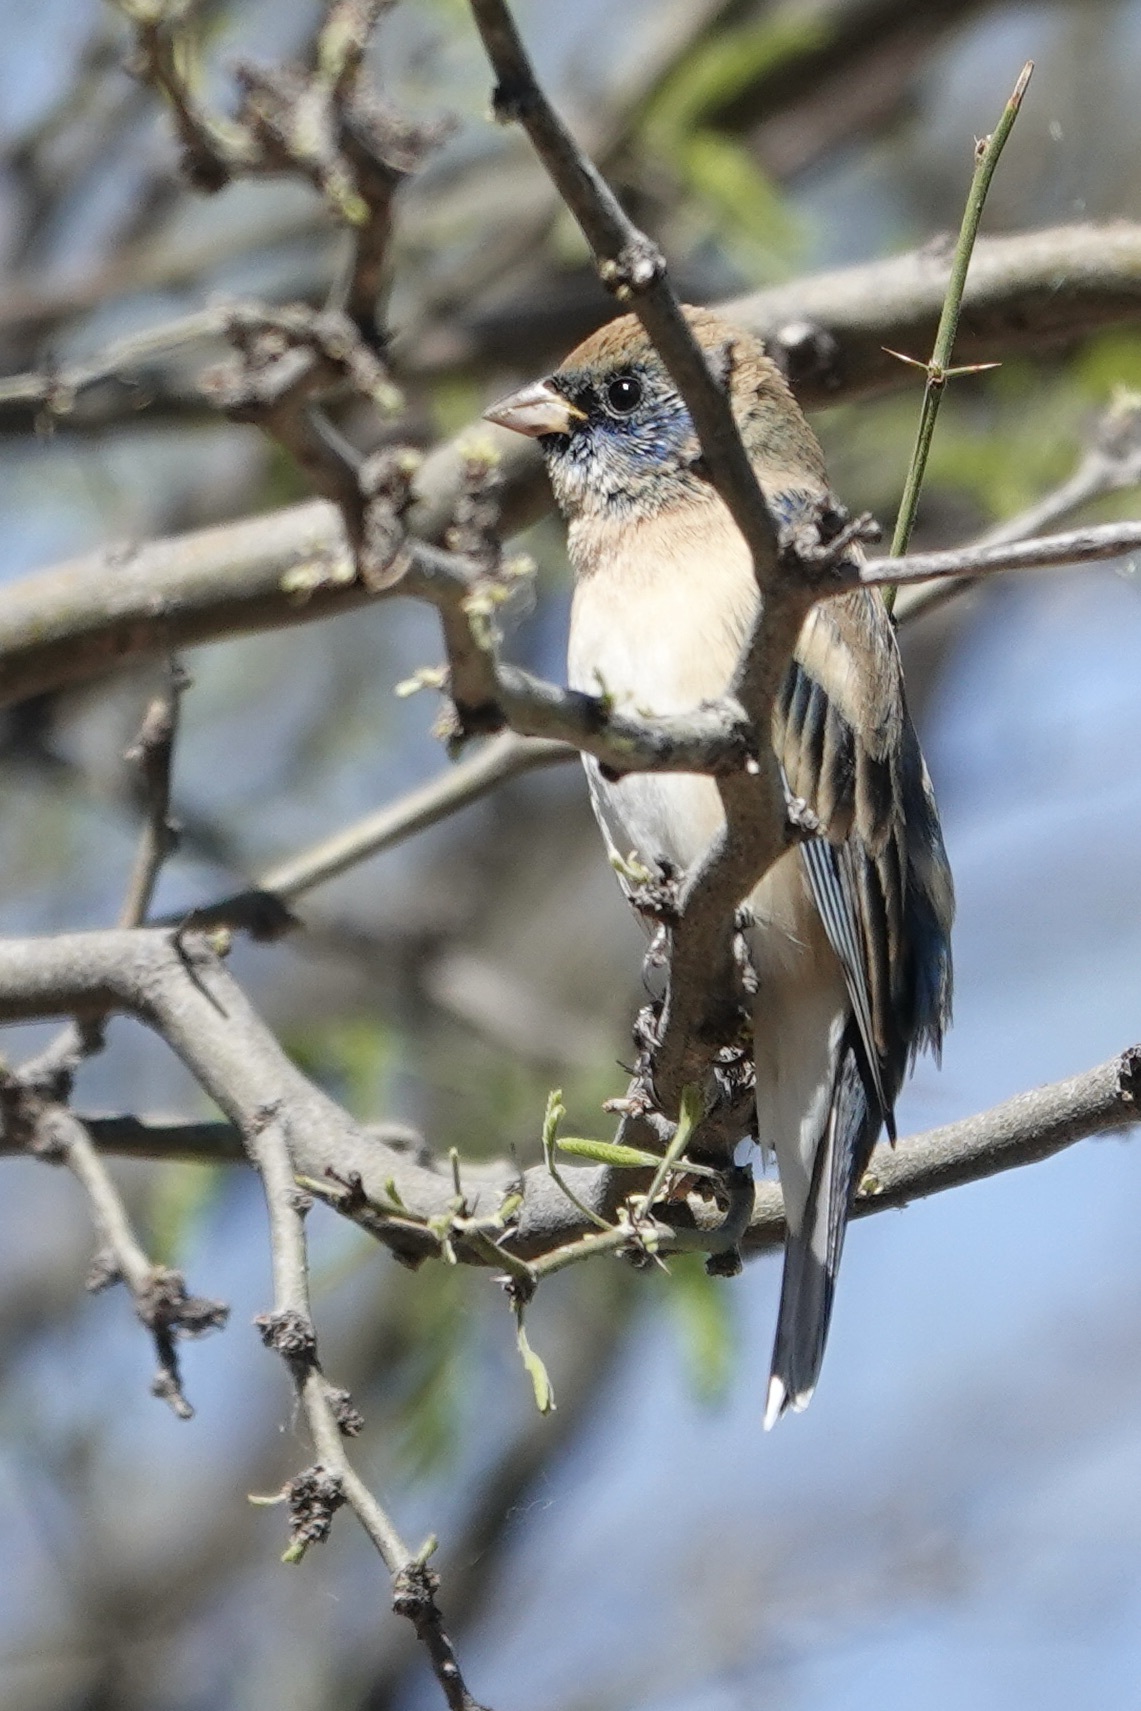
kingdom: Animalia
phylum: Chordata
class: Aves
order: Passeriformes
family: Cardinalidae
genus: Passerina
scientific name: Passerina amoena
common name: Lazuli bunting
